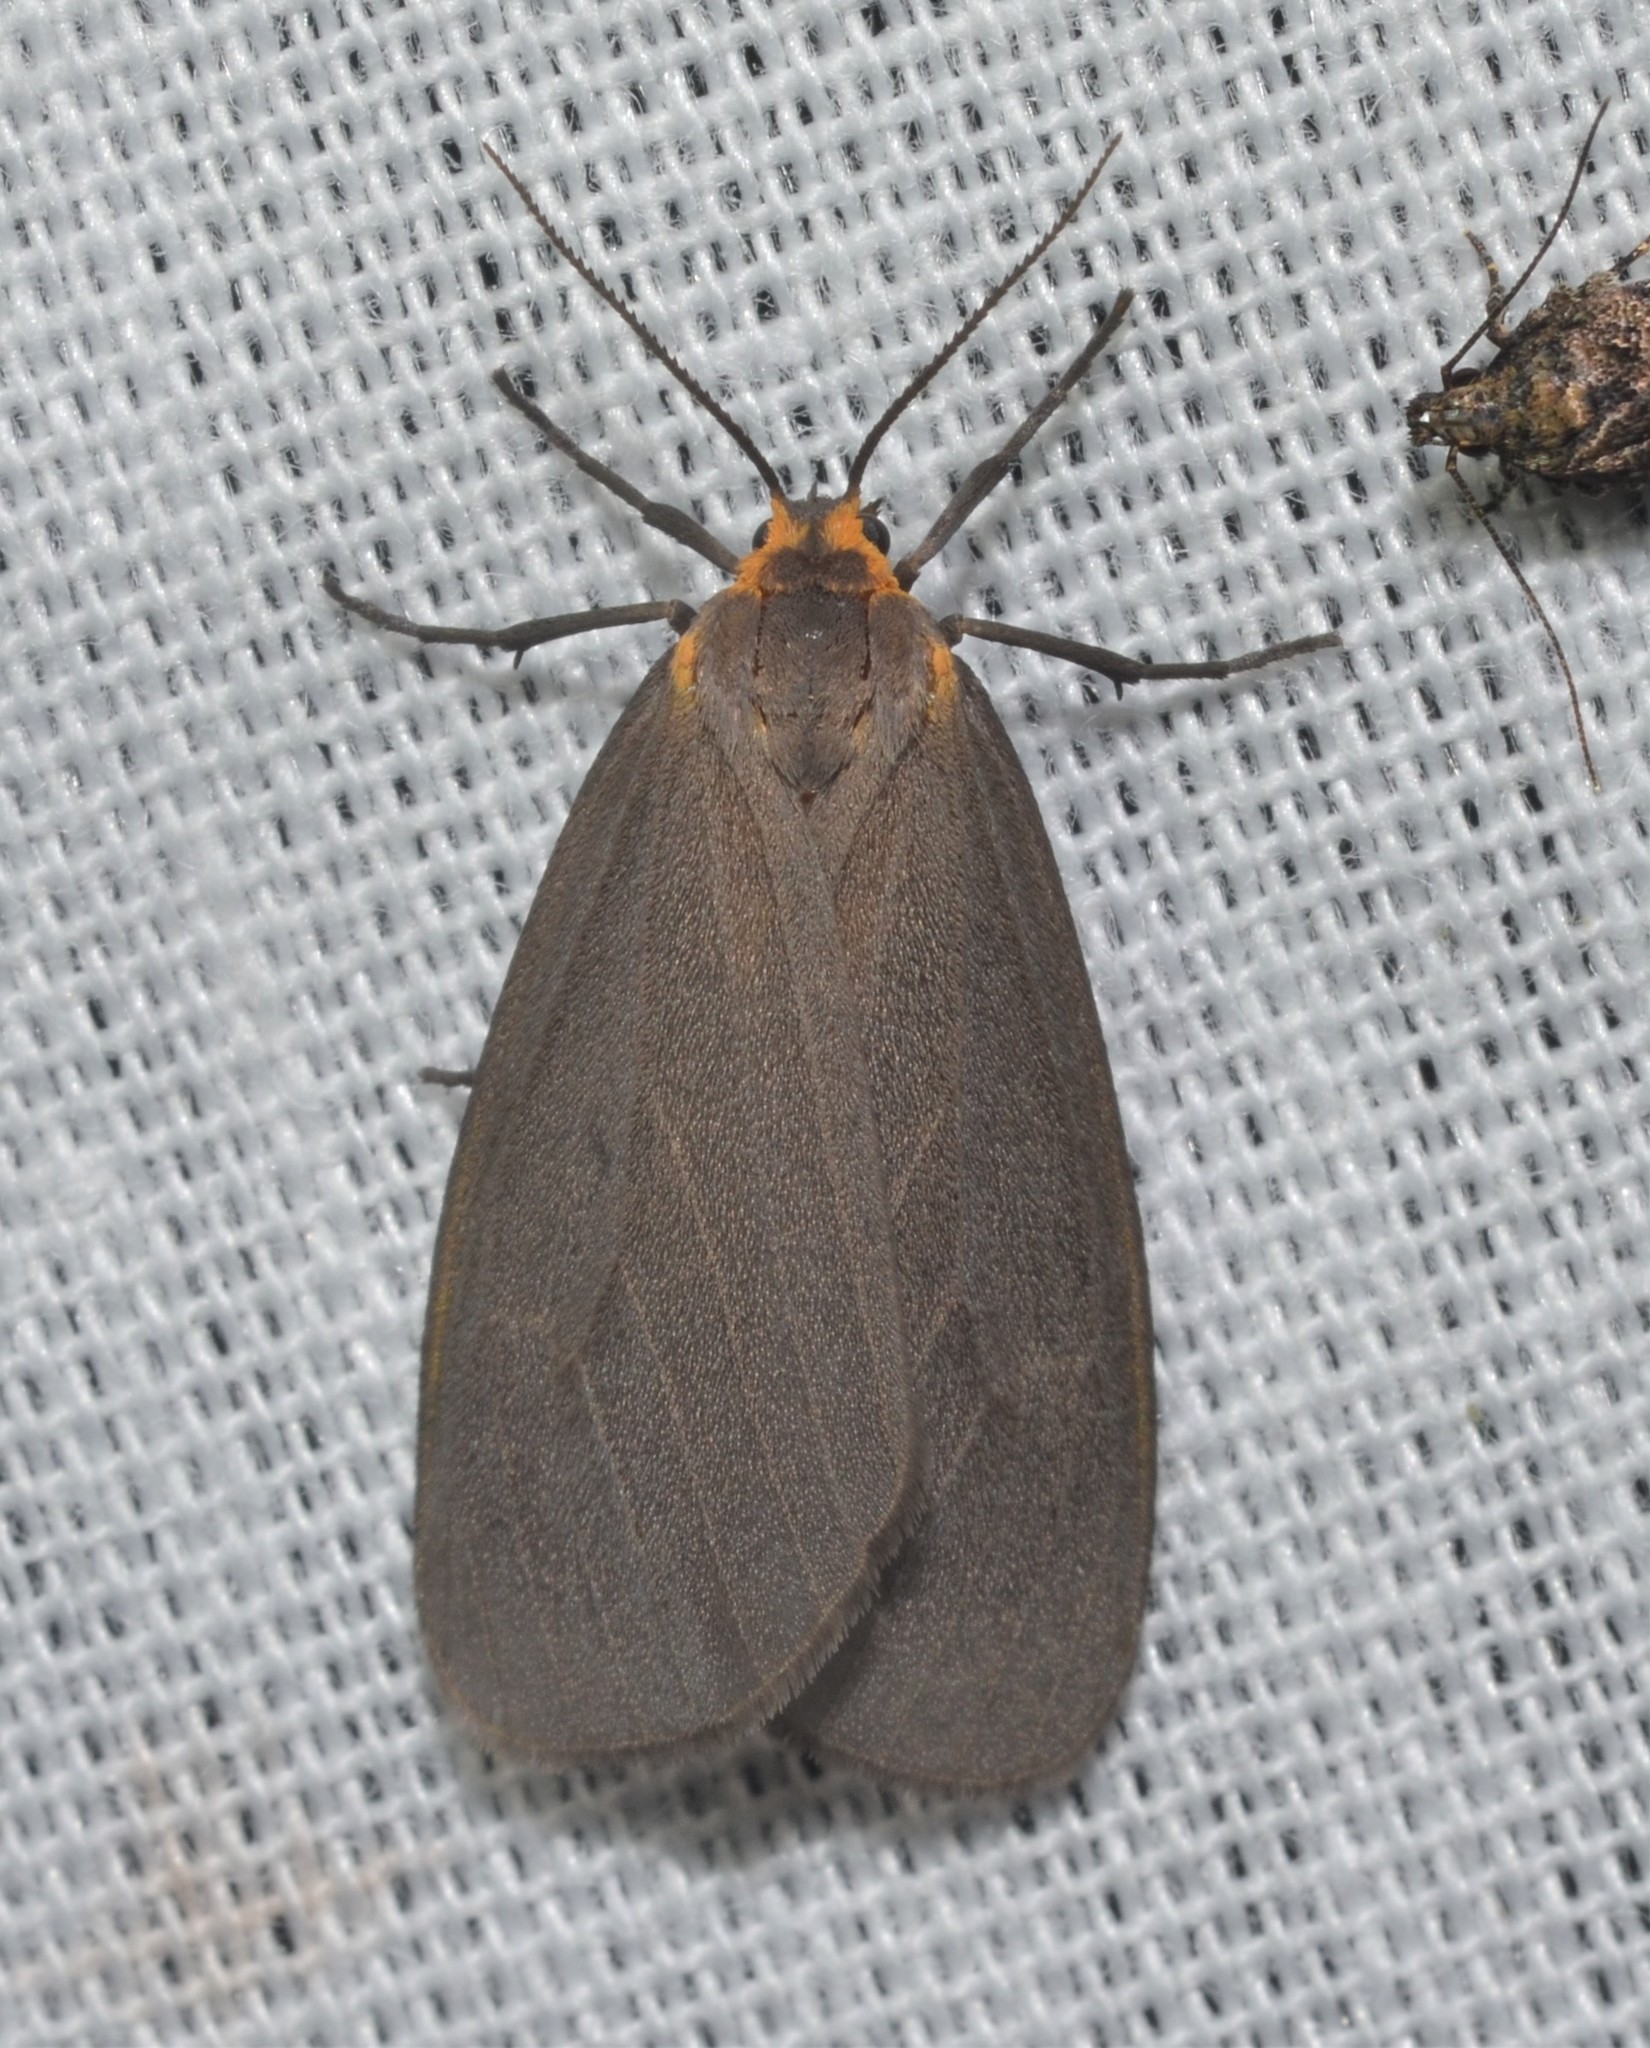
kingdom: Animalia
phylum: Arthropoda
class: Insecta
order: Lepidoptera
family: Erebidae
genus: Pagara
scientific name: Pagara simplex
